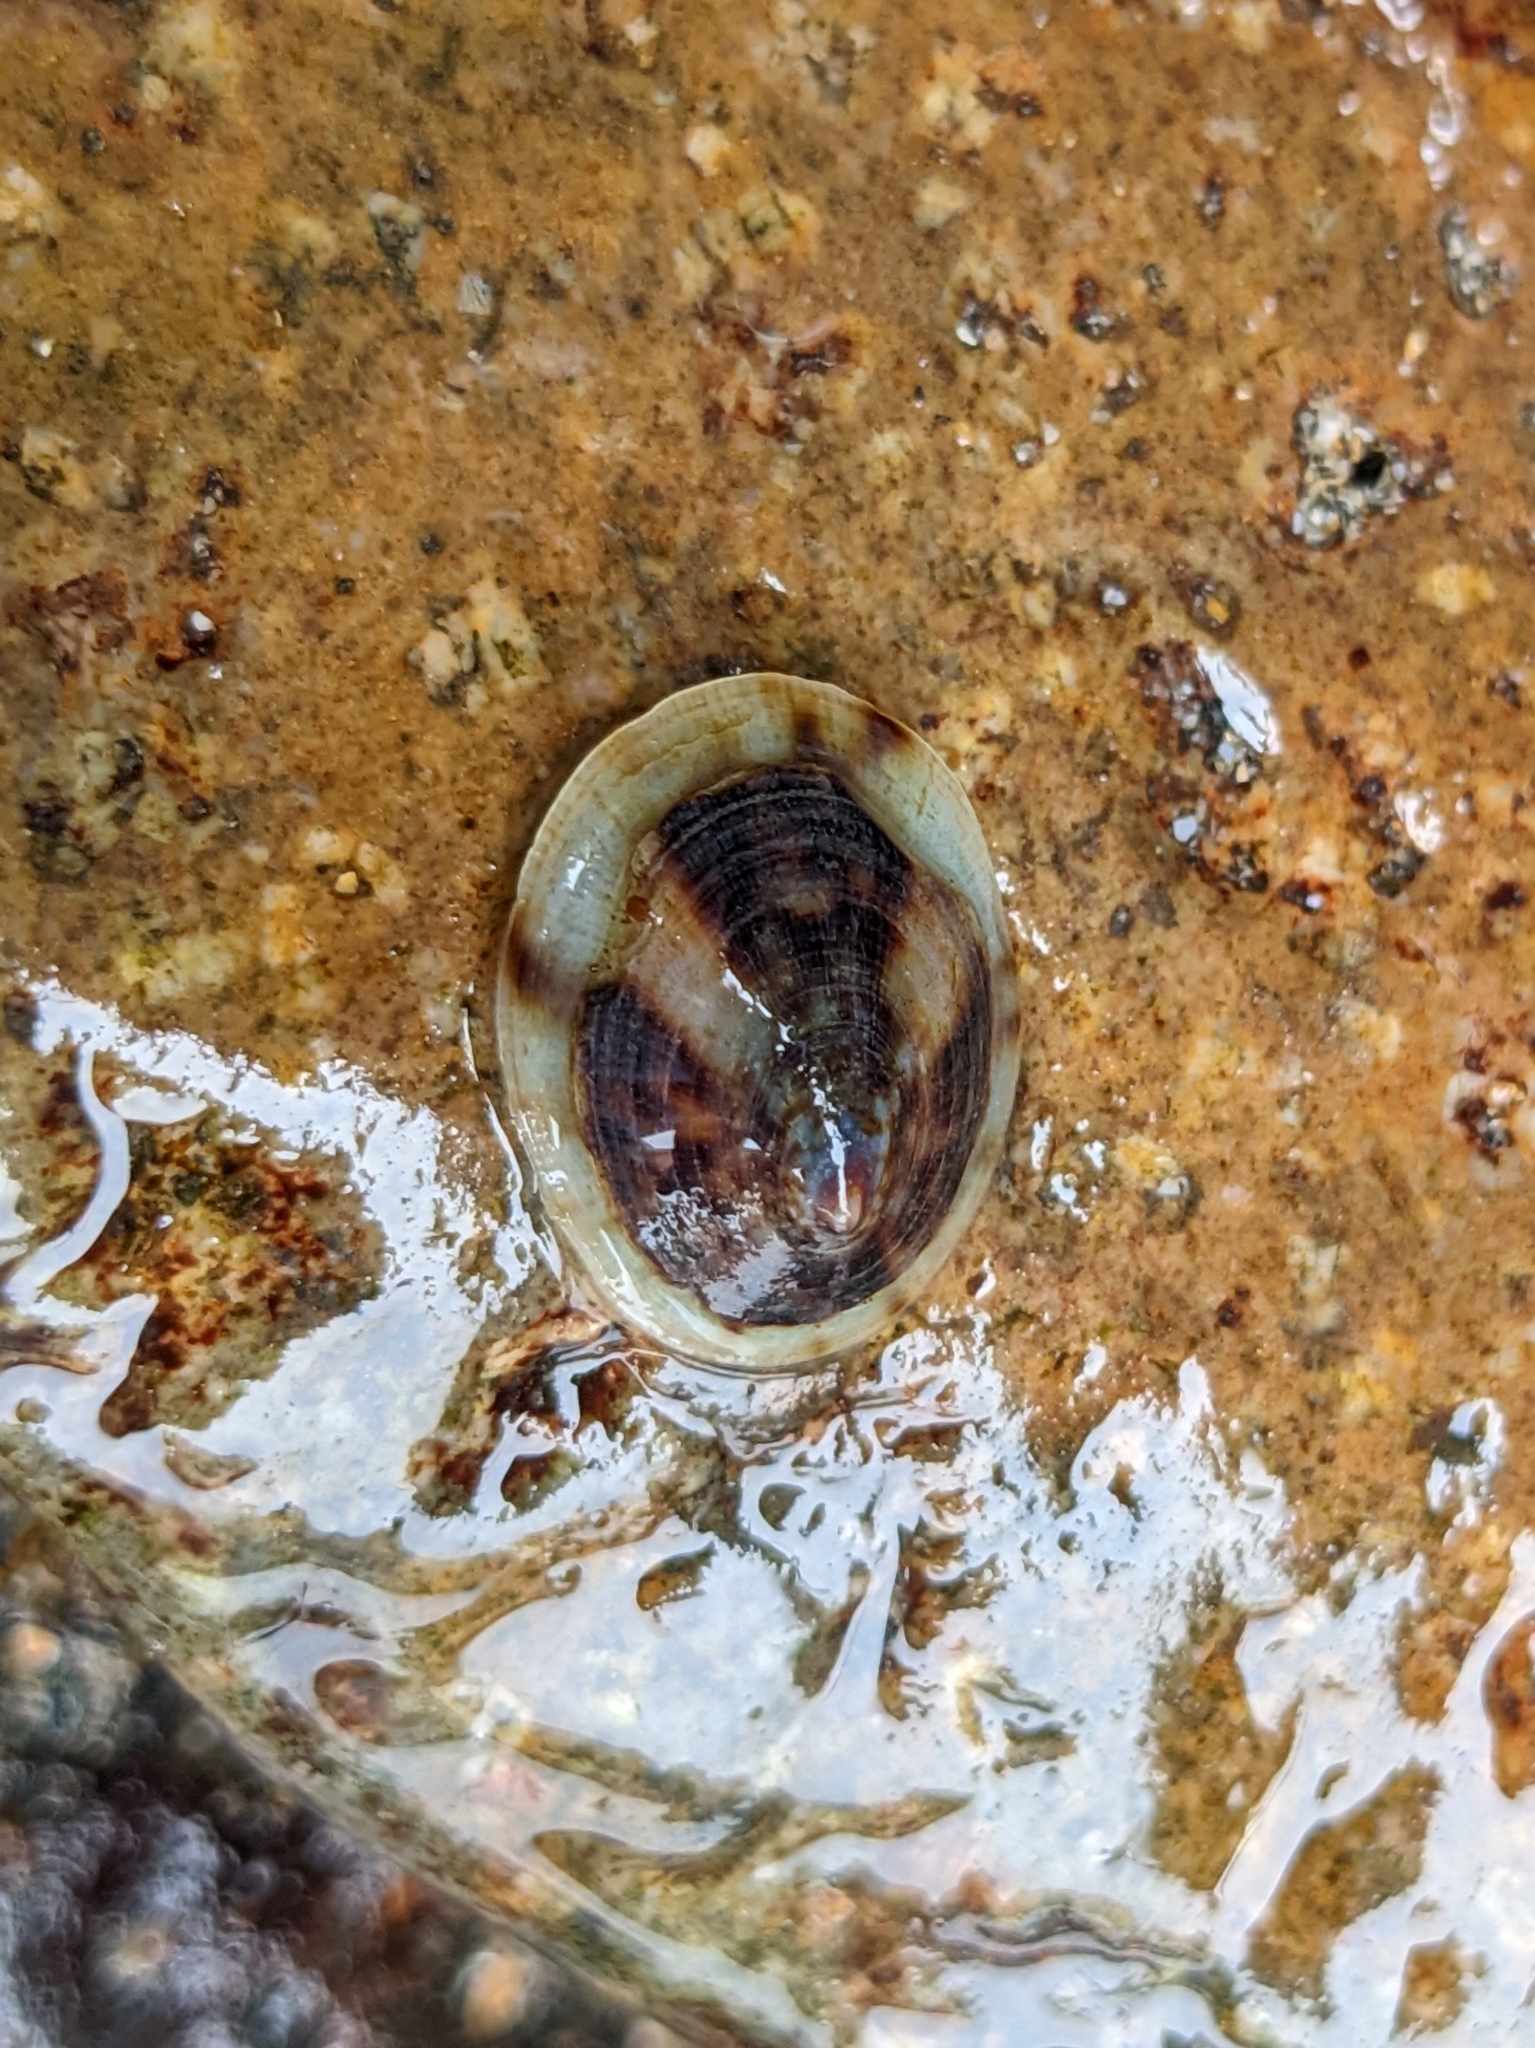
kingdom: Animalia
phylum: Mollusca
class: Gastropoda
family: Lottiidae
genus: Testudinalia
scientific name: Testudinalia testudinalis
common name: Common tortoiseshell limpet
